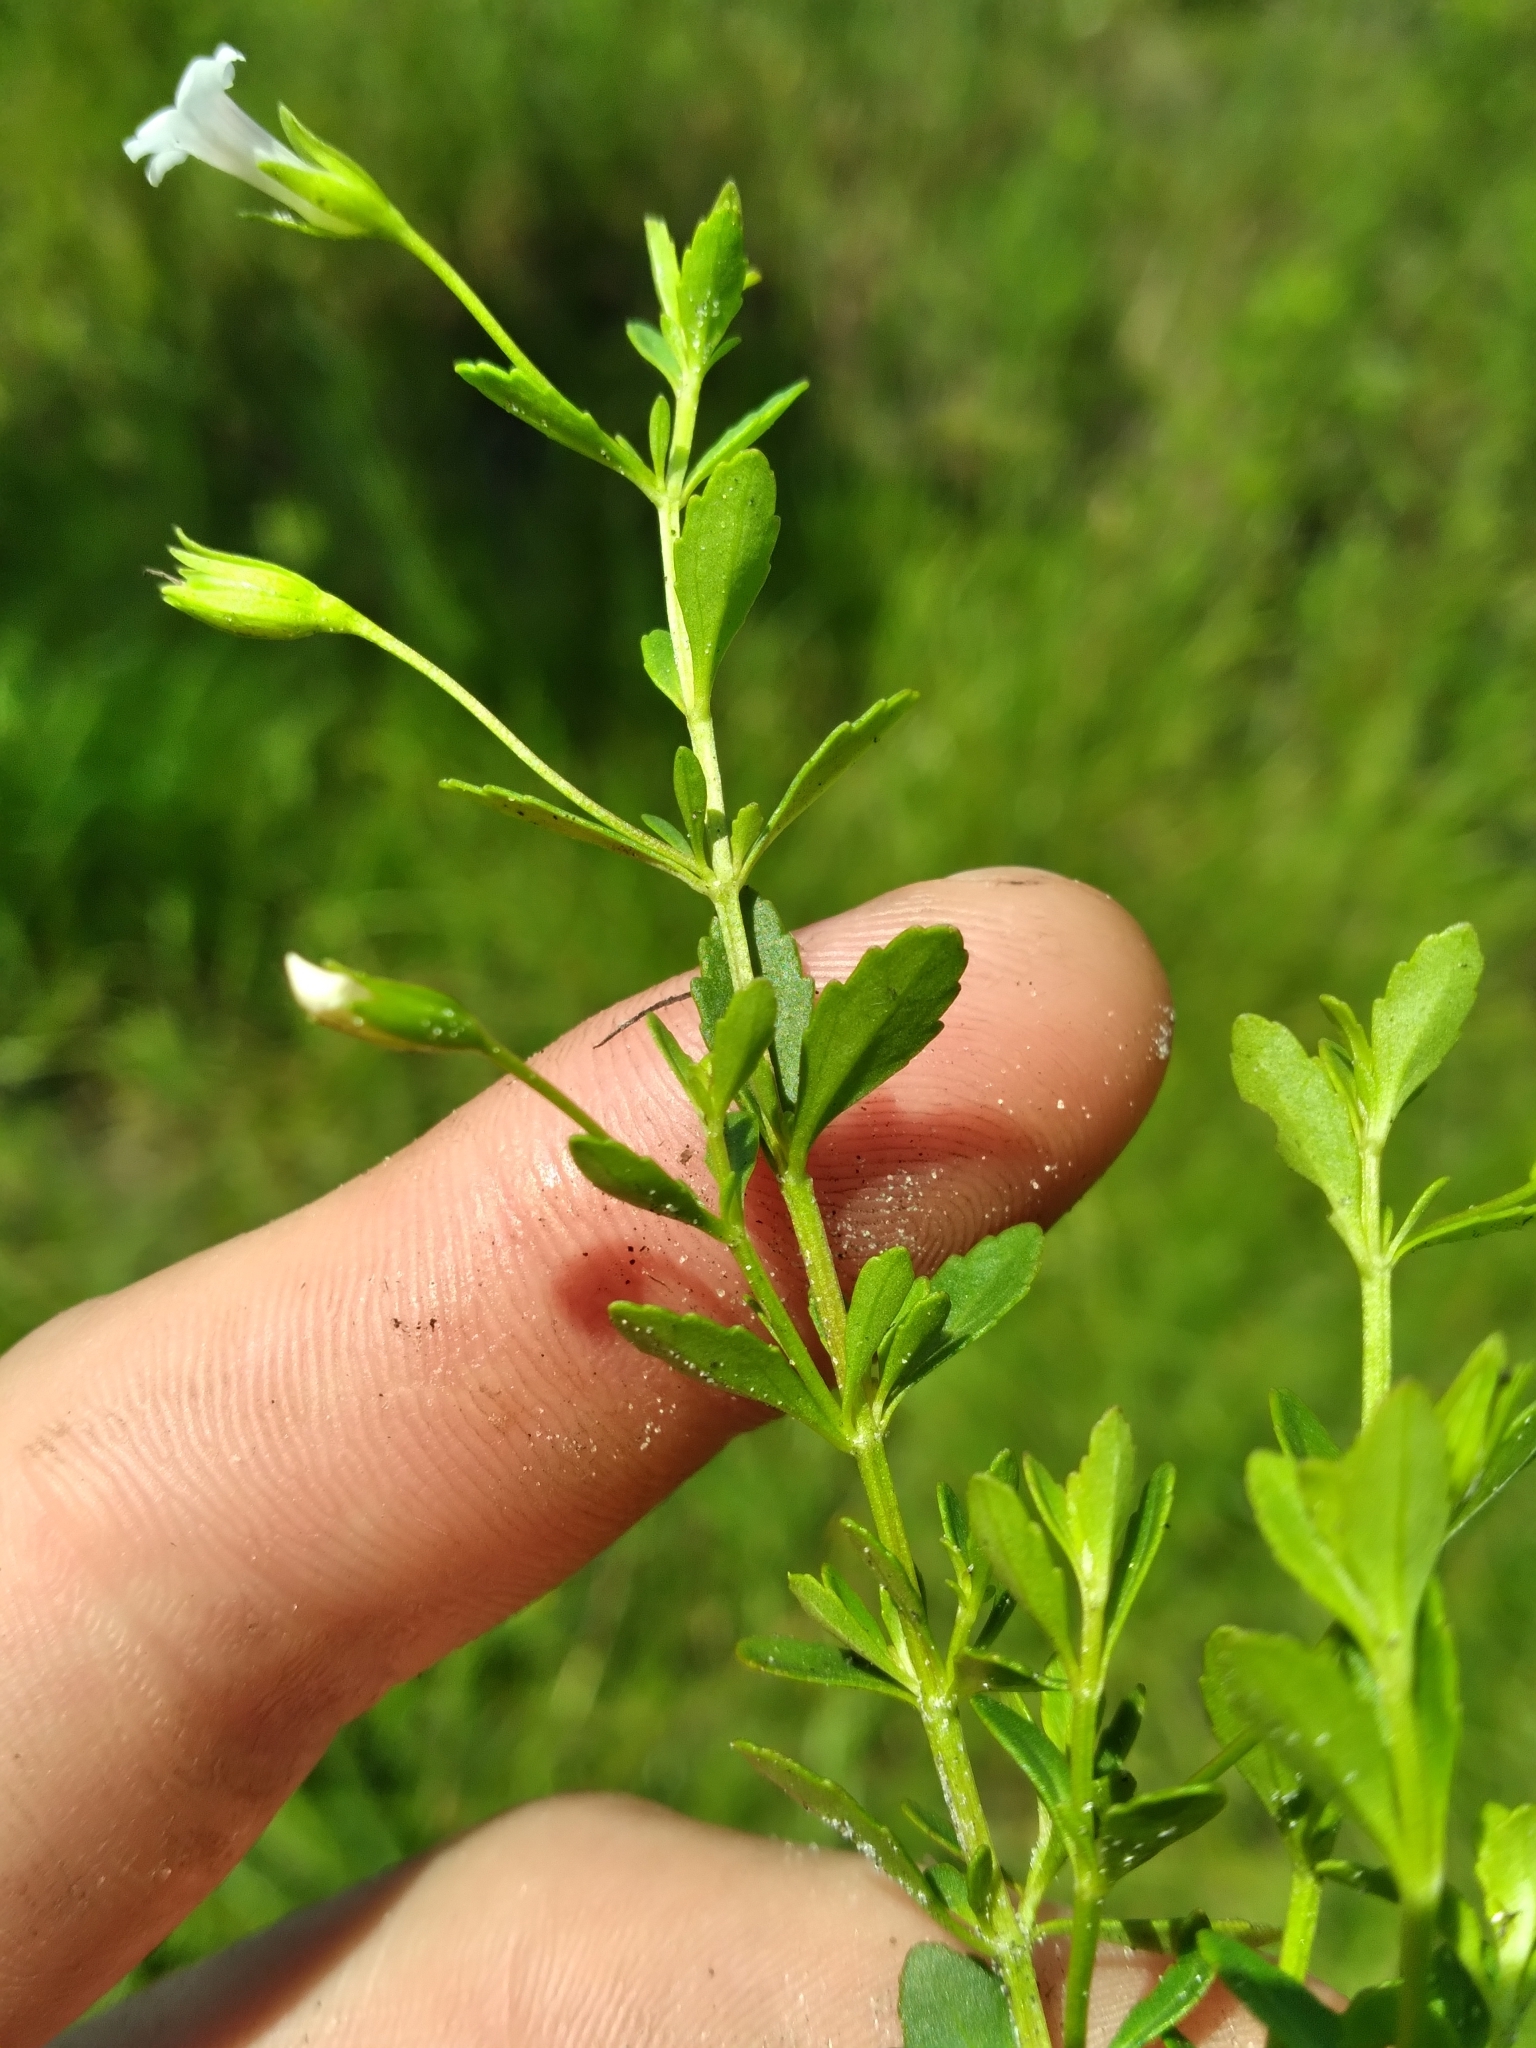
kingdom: Plantae
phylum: Tracheophyta
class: Magnoliopsida
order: Lamiales
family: Plantaginaceae
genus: Mecardonia
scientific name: Mecardonia acuminata
